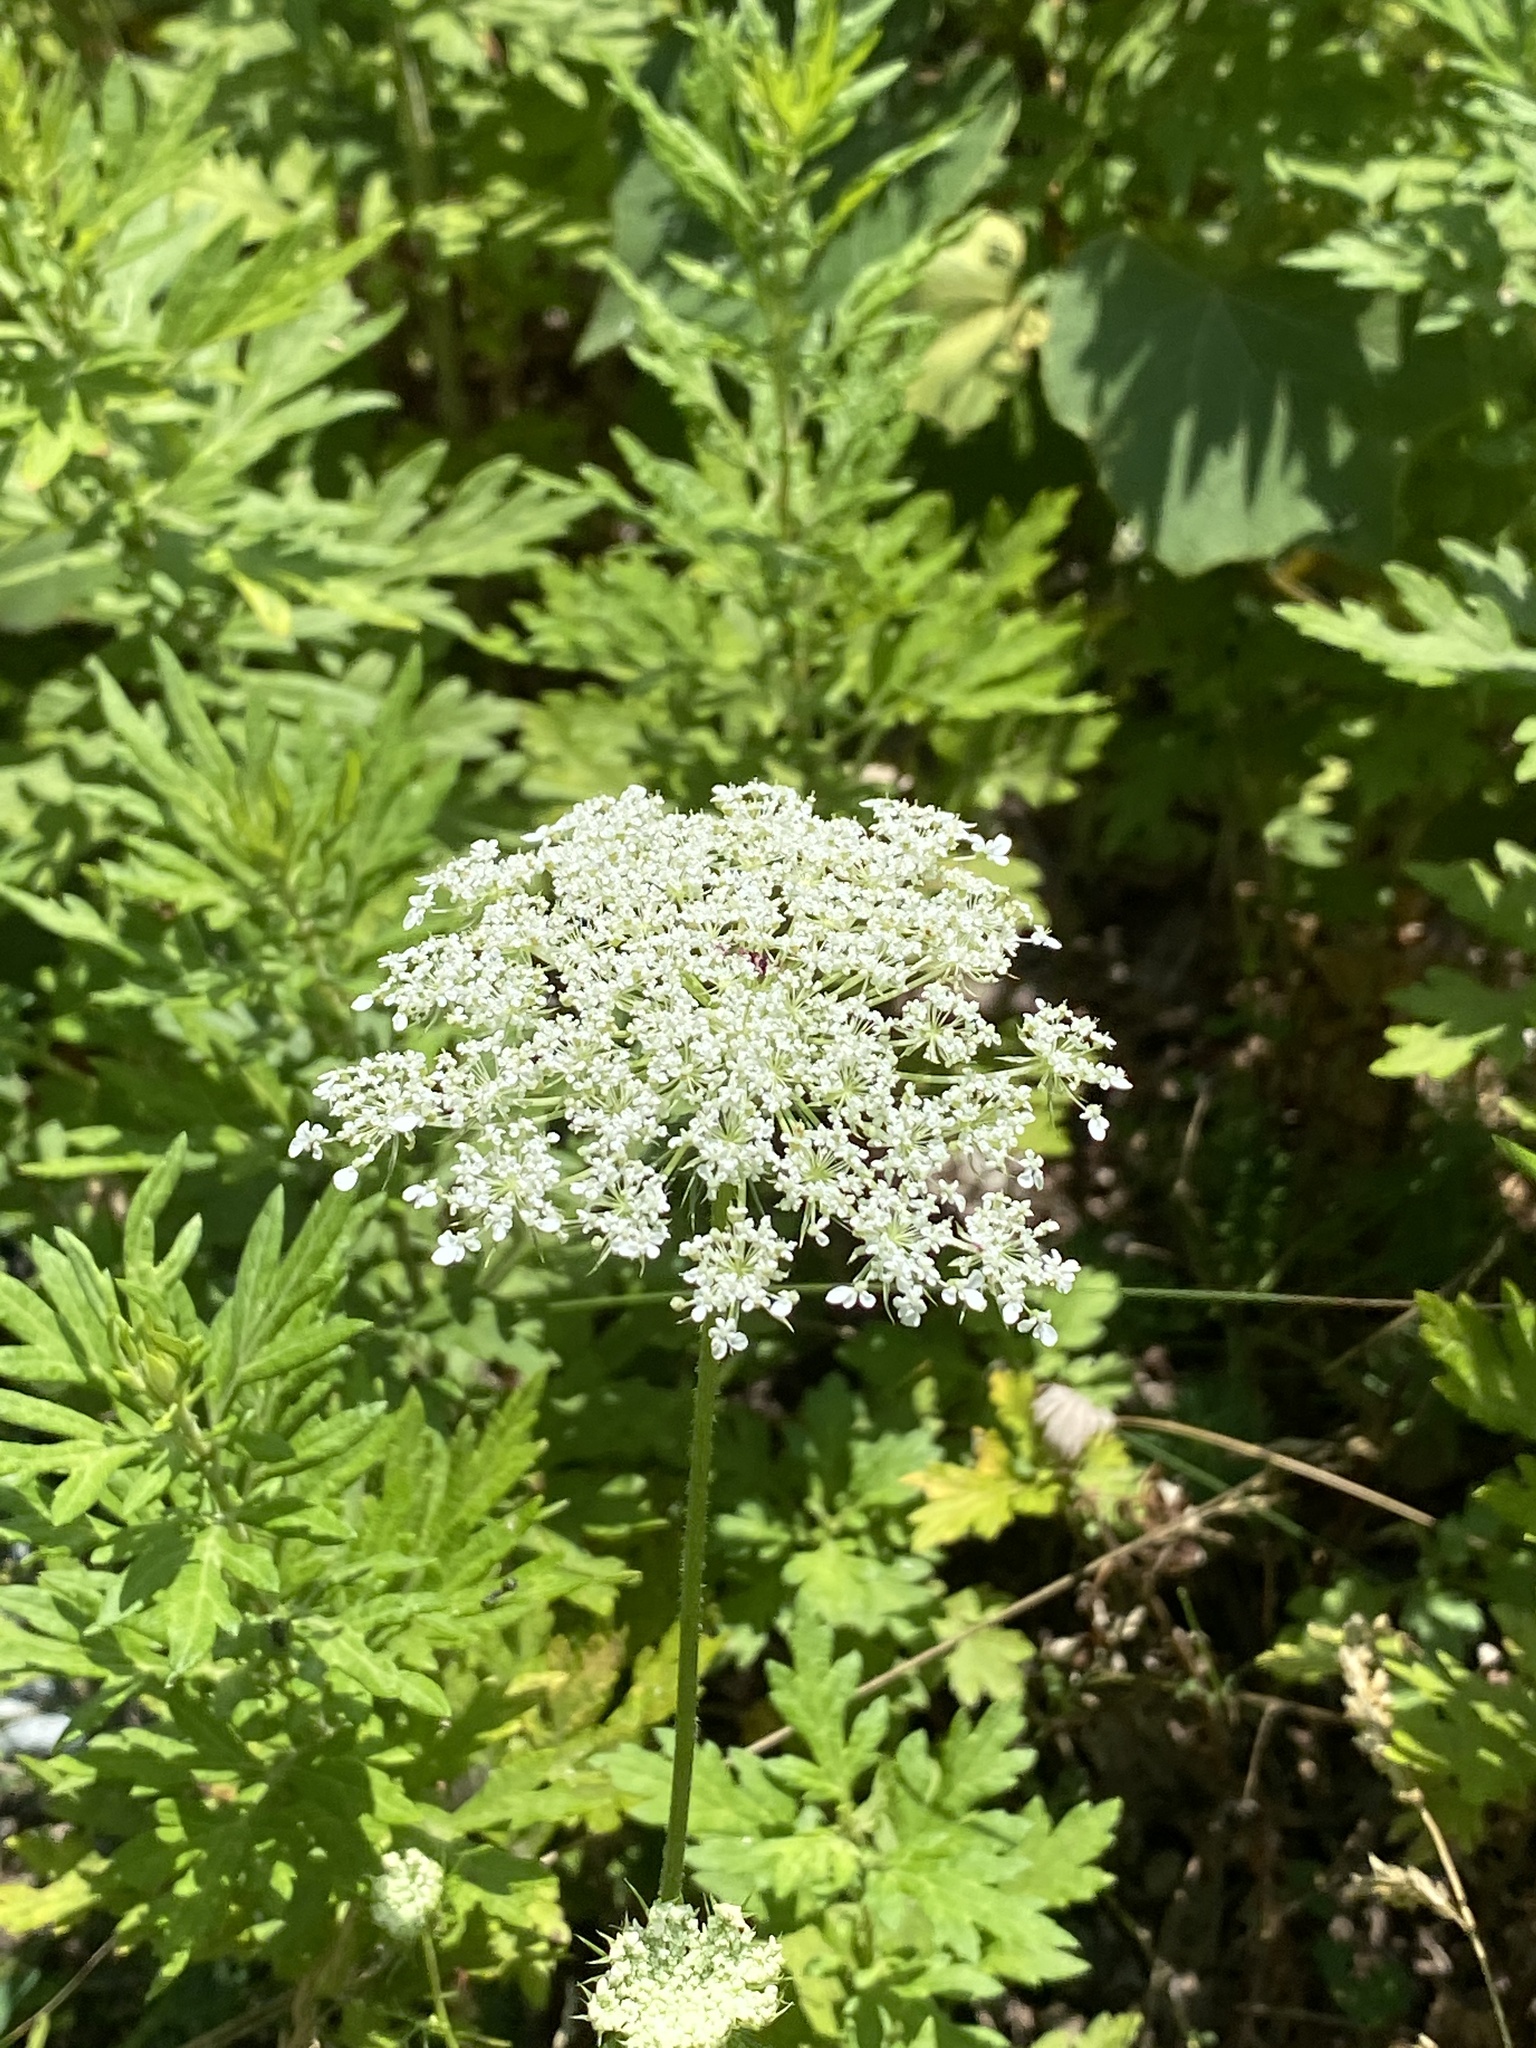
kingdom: Plantae
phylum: Tracheophyta
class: Magnoliopsida
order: Apiales
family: Apiaceae
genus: Daucus
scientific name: Daucus carota
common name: Wild carrot
